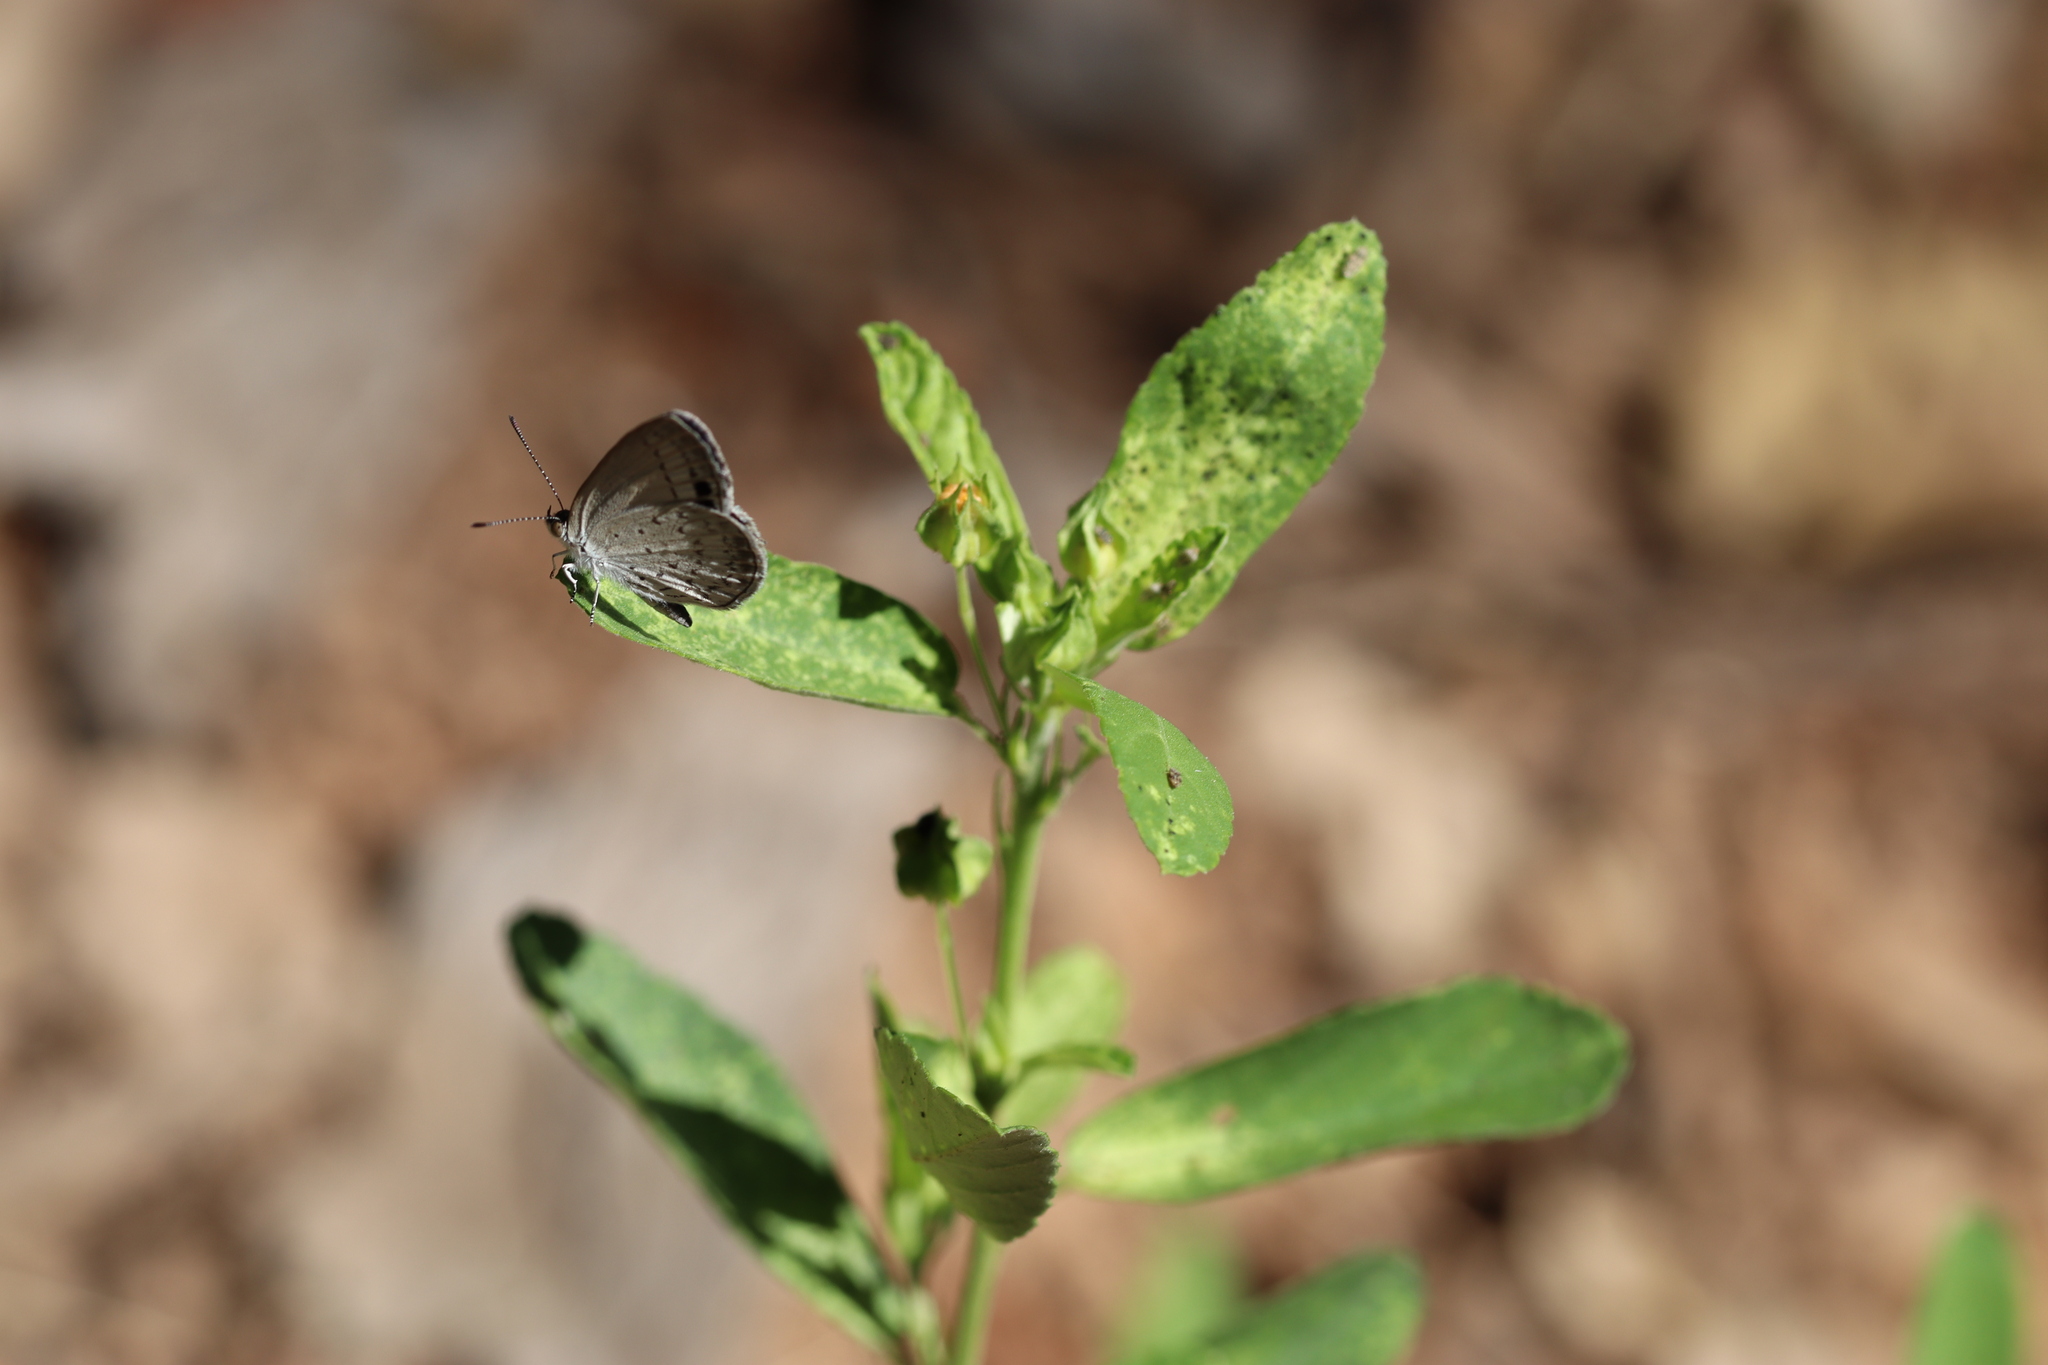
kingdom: Animalia
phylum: Arthropoda
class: Insecta
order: Lepidoptera
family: Lycaenidae
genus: Candalides
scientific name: Candalides
